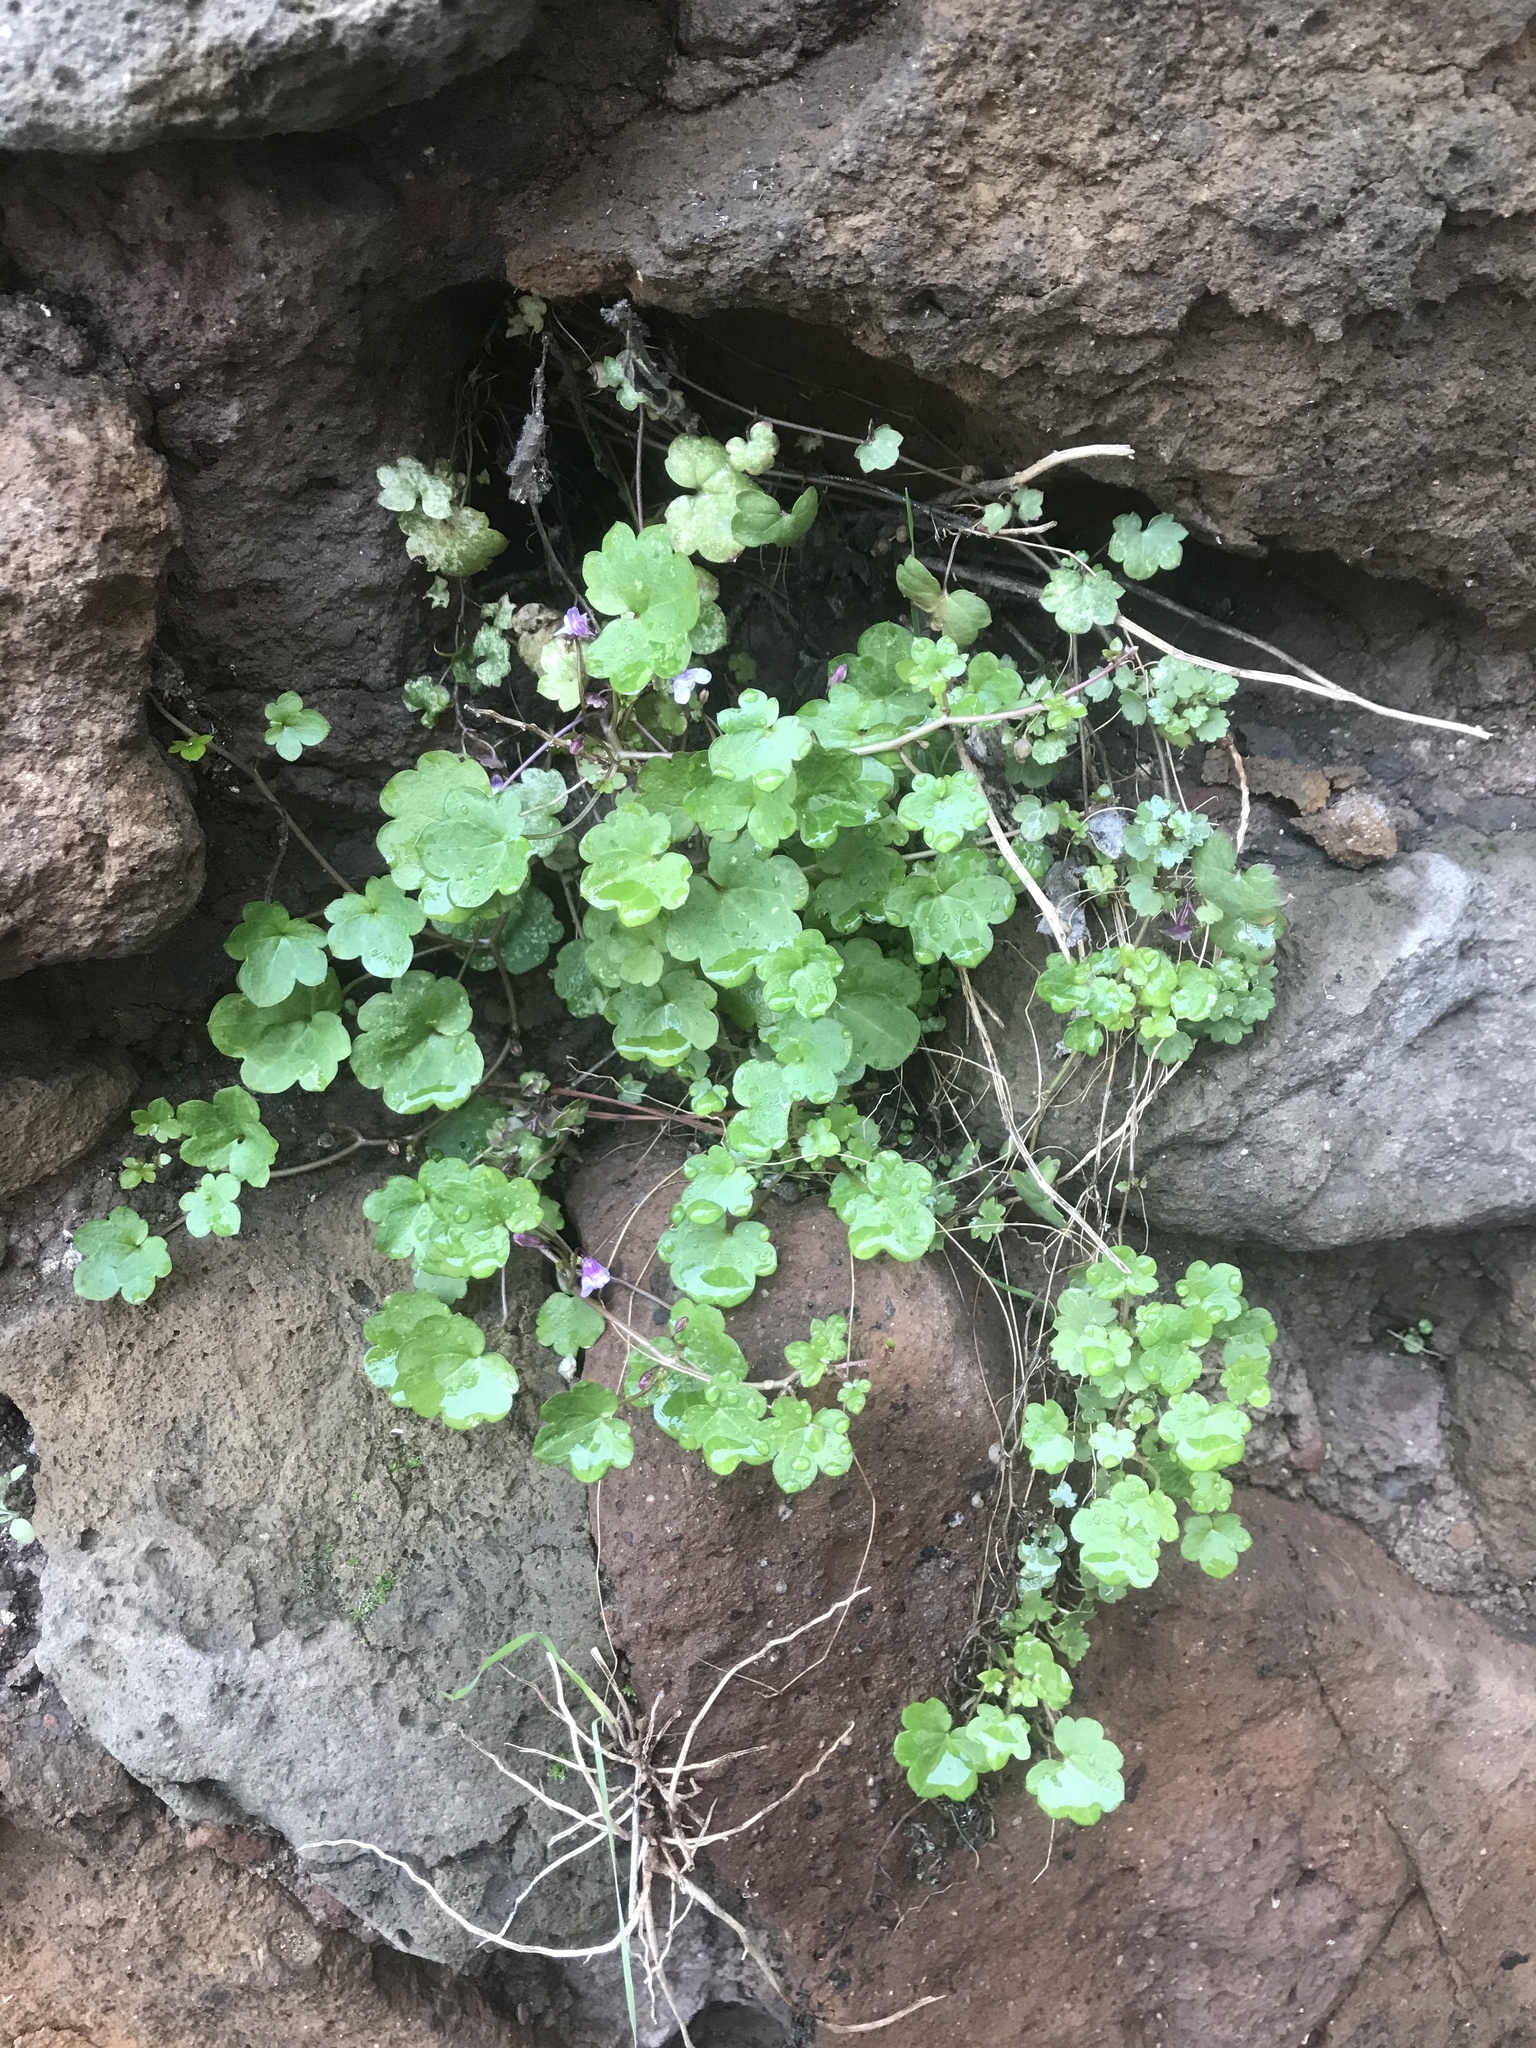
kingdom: Plantae
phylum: Tracheophyta
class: Magnoliopsida
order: Lamiales
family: Plantaginaceae
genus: Cymbalaria
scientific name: Cymbalaria muralis
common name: Ivy-leaved toadflax
